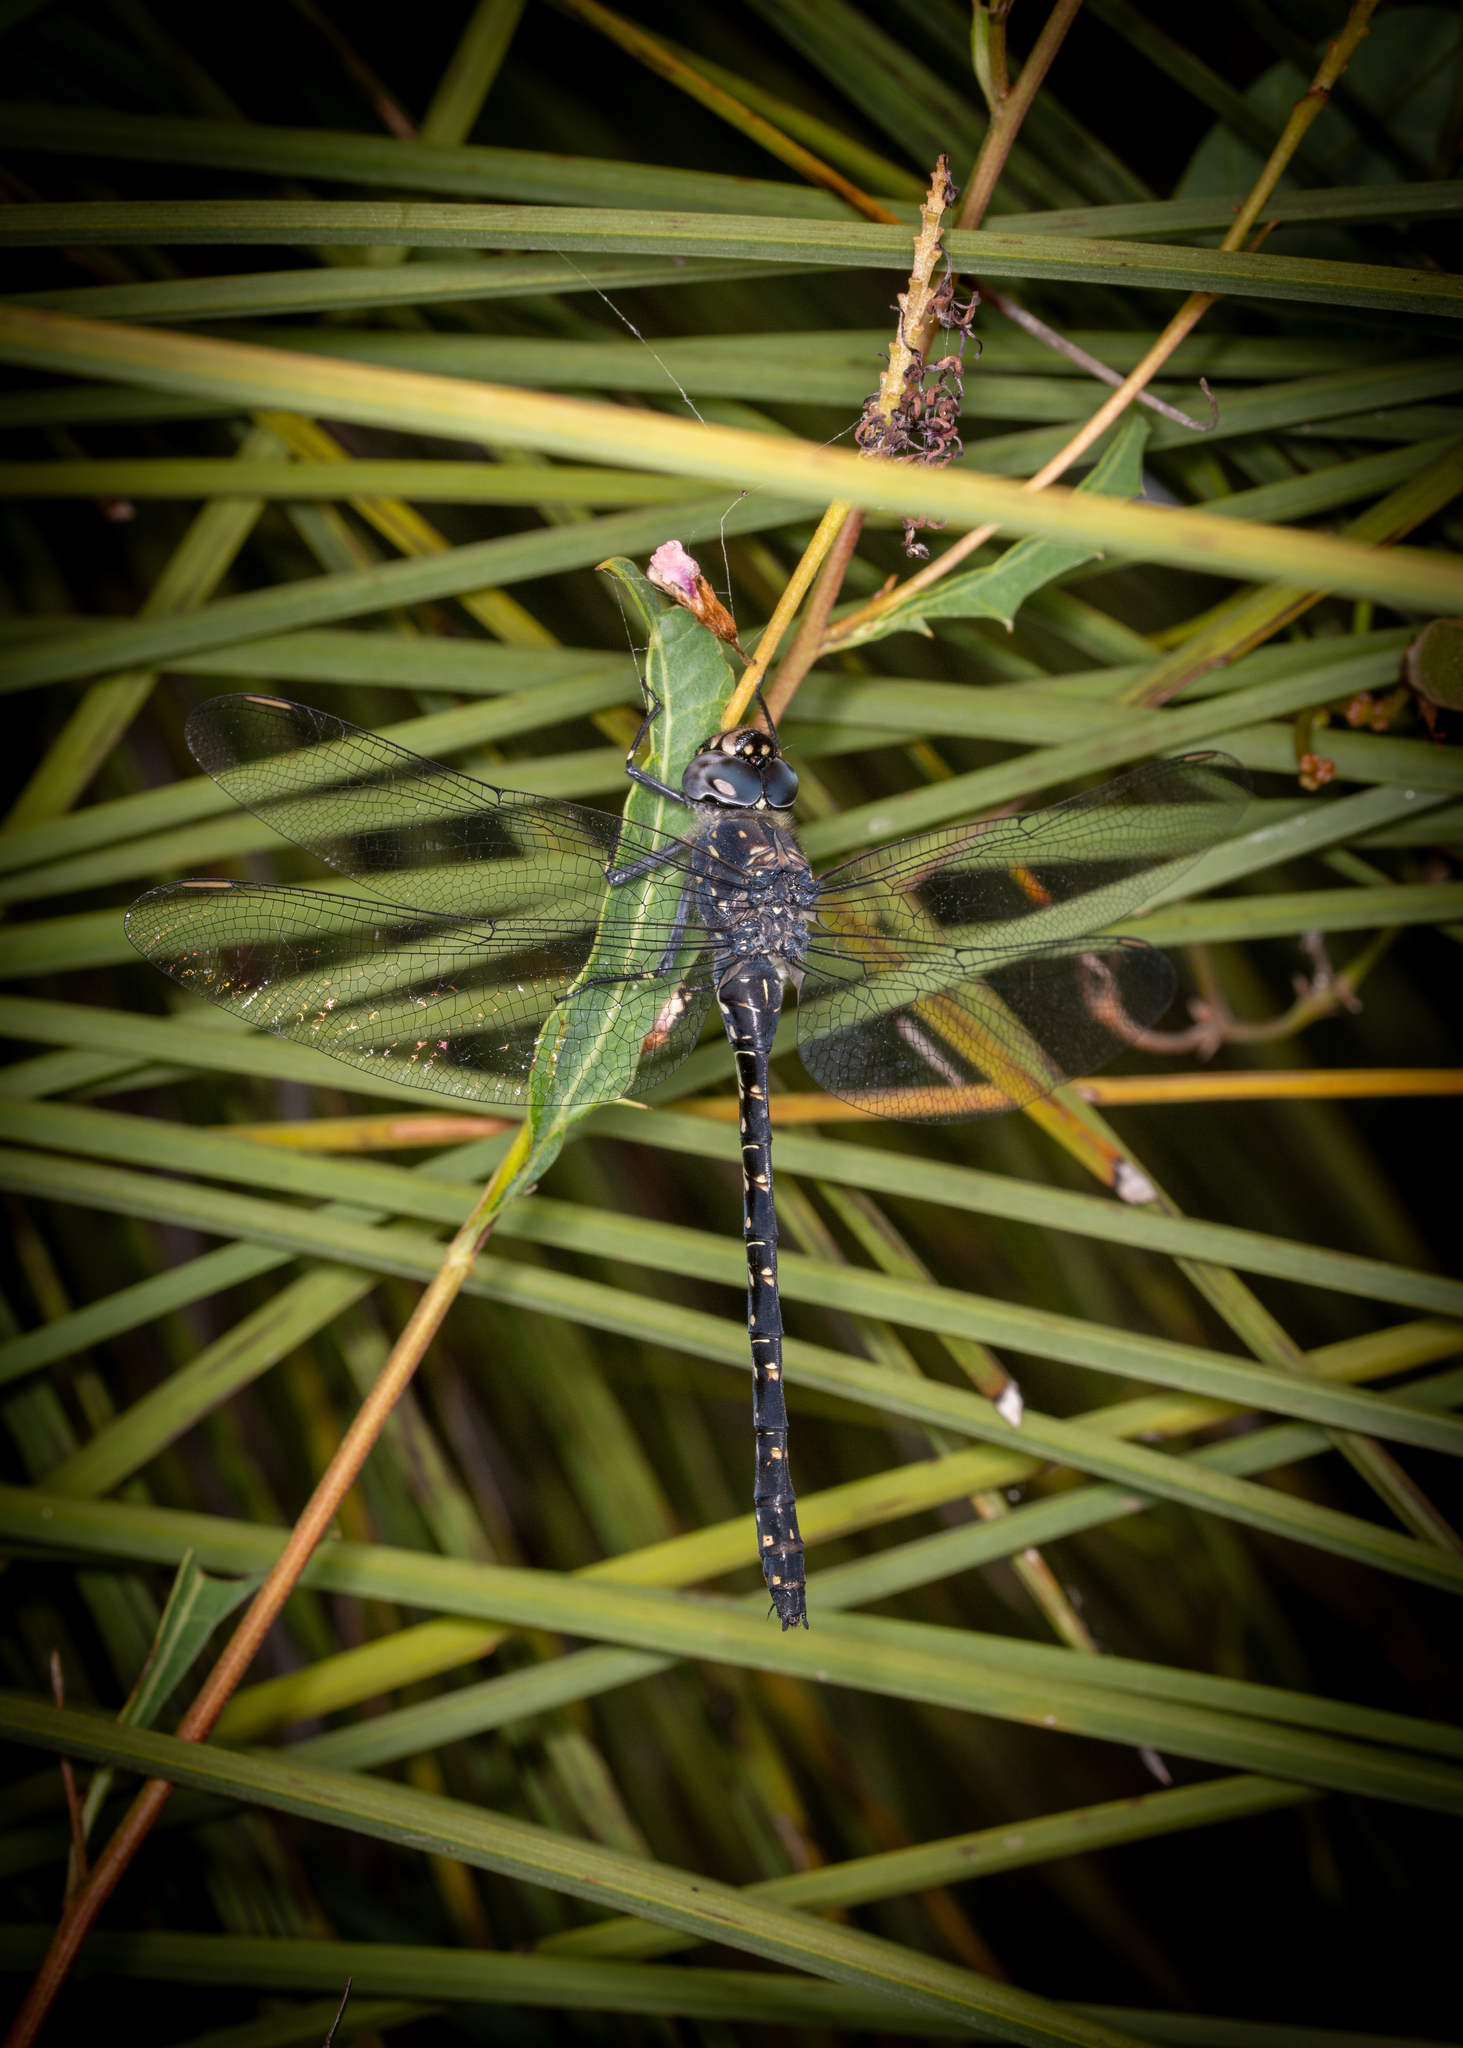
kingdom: Animalia
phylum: Arthropoda
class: Insecta
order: Odonata
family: Aeshnidae
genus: Austroaeschna
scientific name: Austroaeschna anacantha
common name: Western darner
